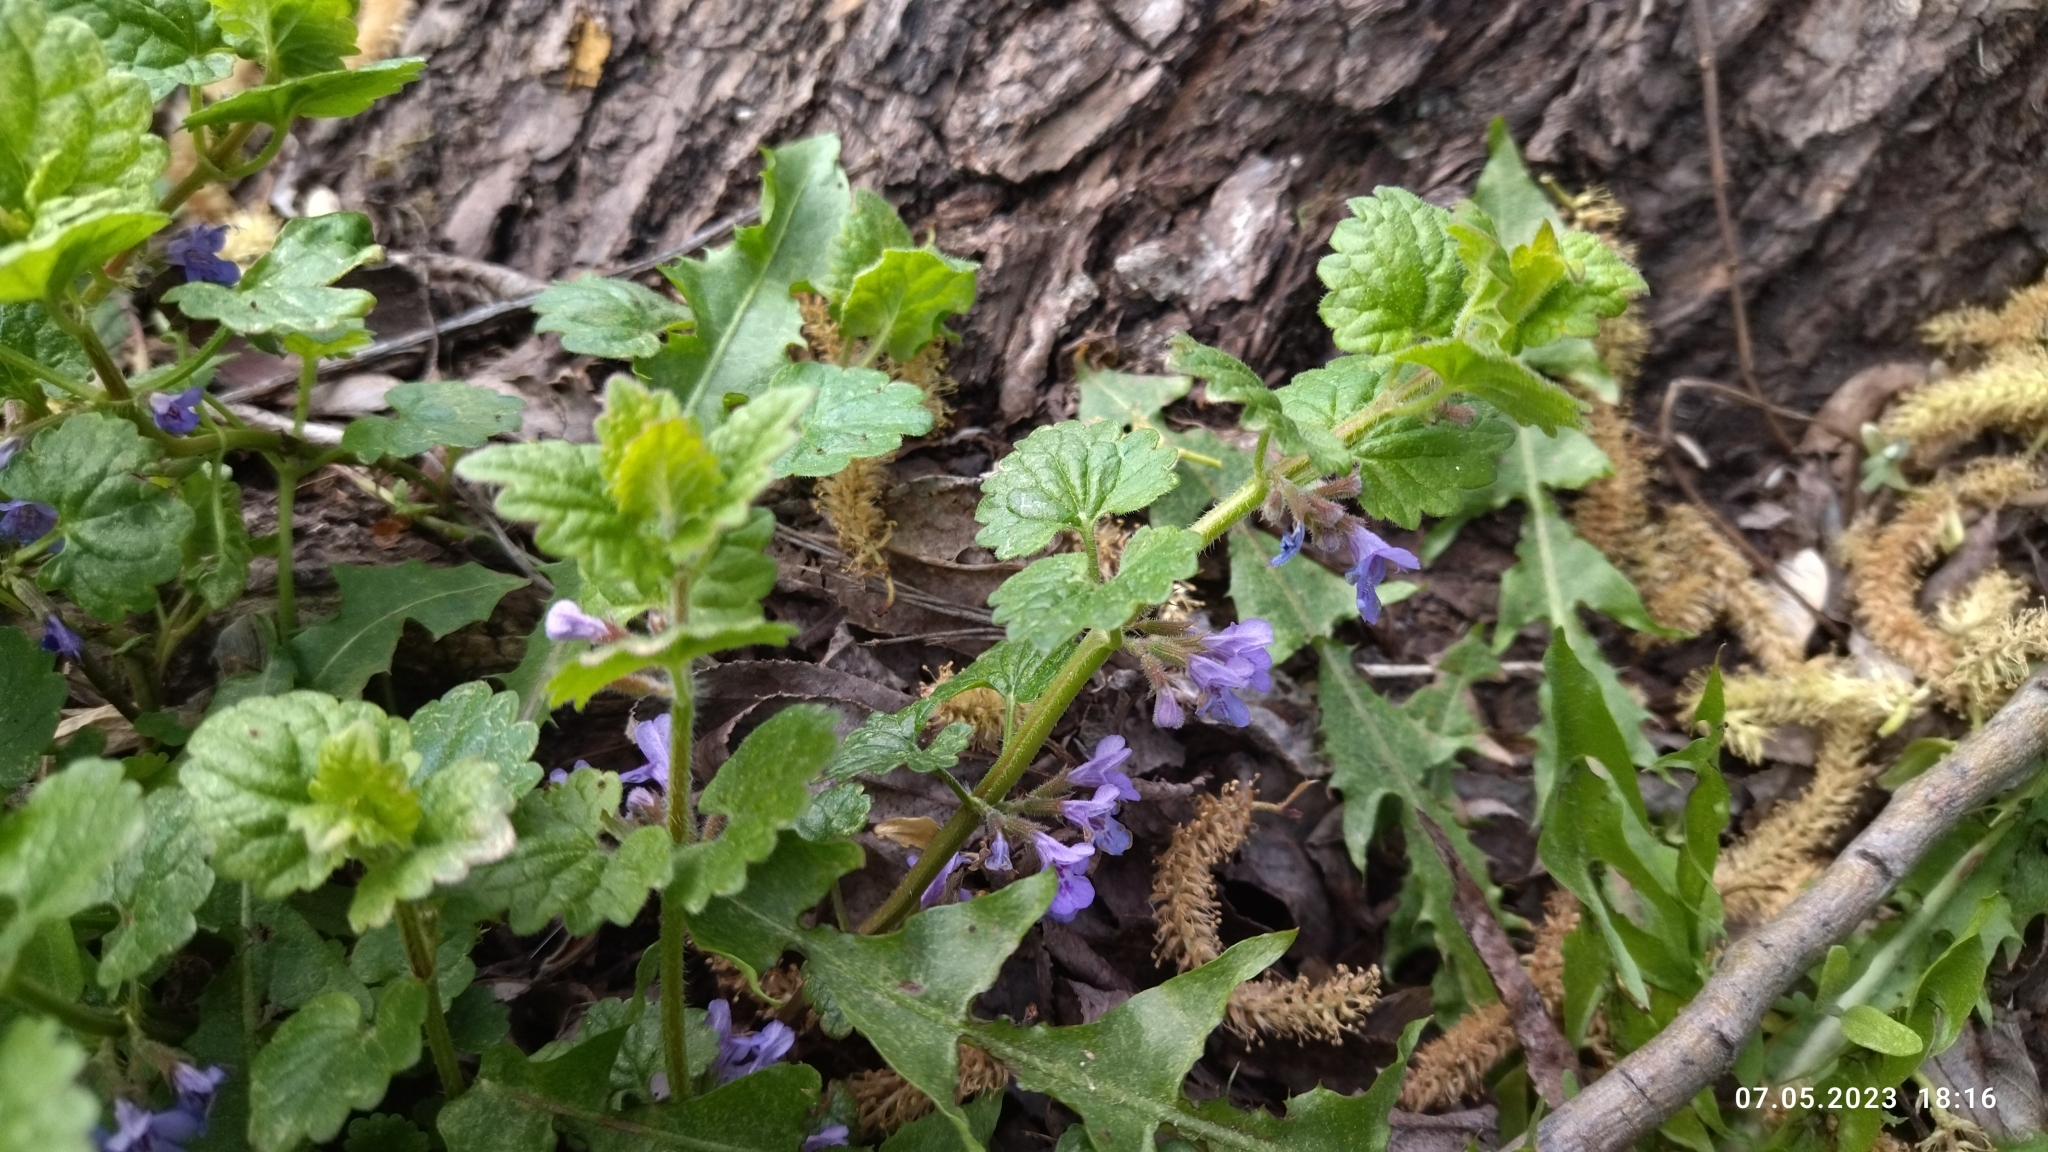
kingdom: Plantae
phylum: Tracheophyta
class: Magnoliopsida
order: Lamiales
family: Lamiaceae
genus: Glechoma
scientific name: Glechoma hederacea
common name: Ground ivy
